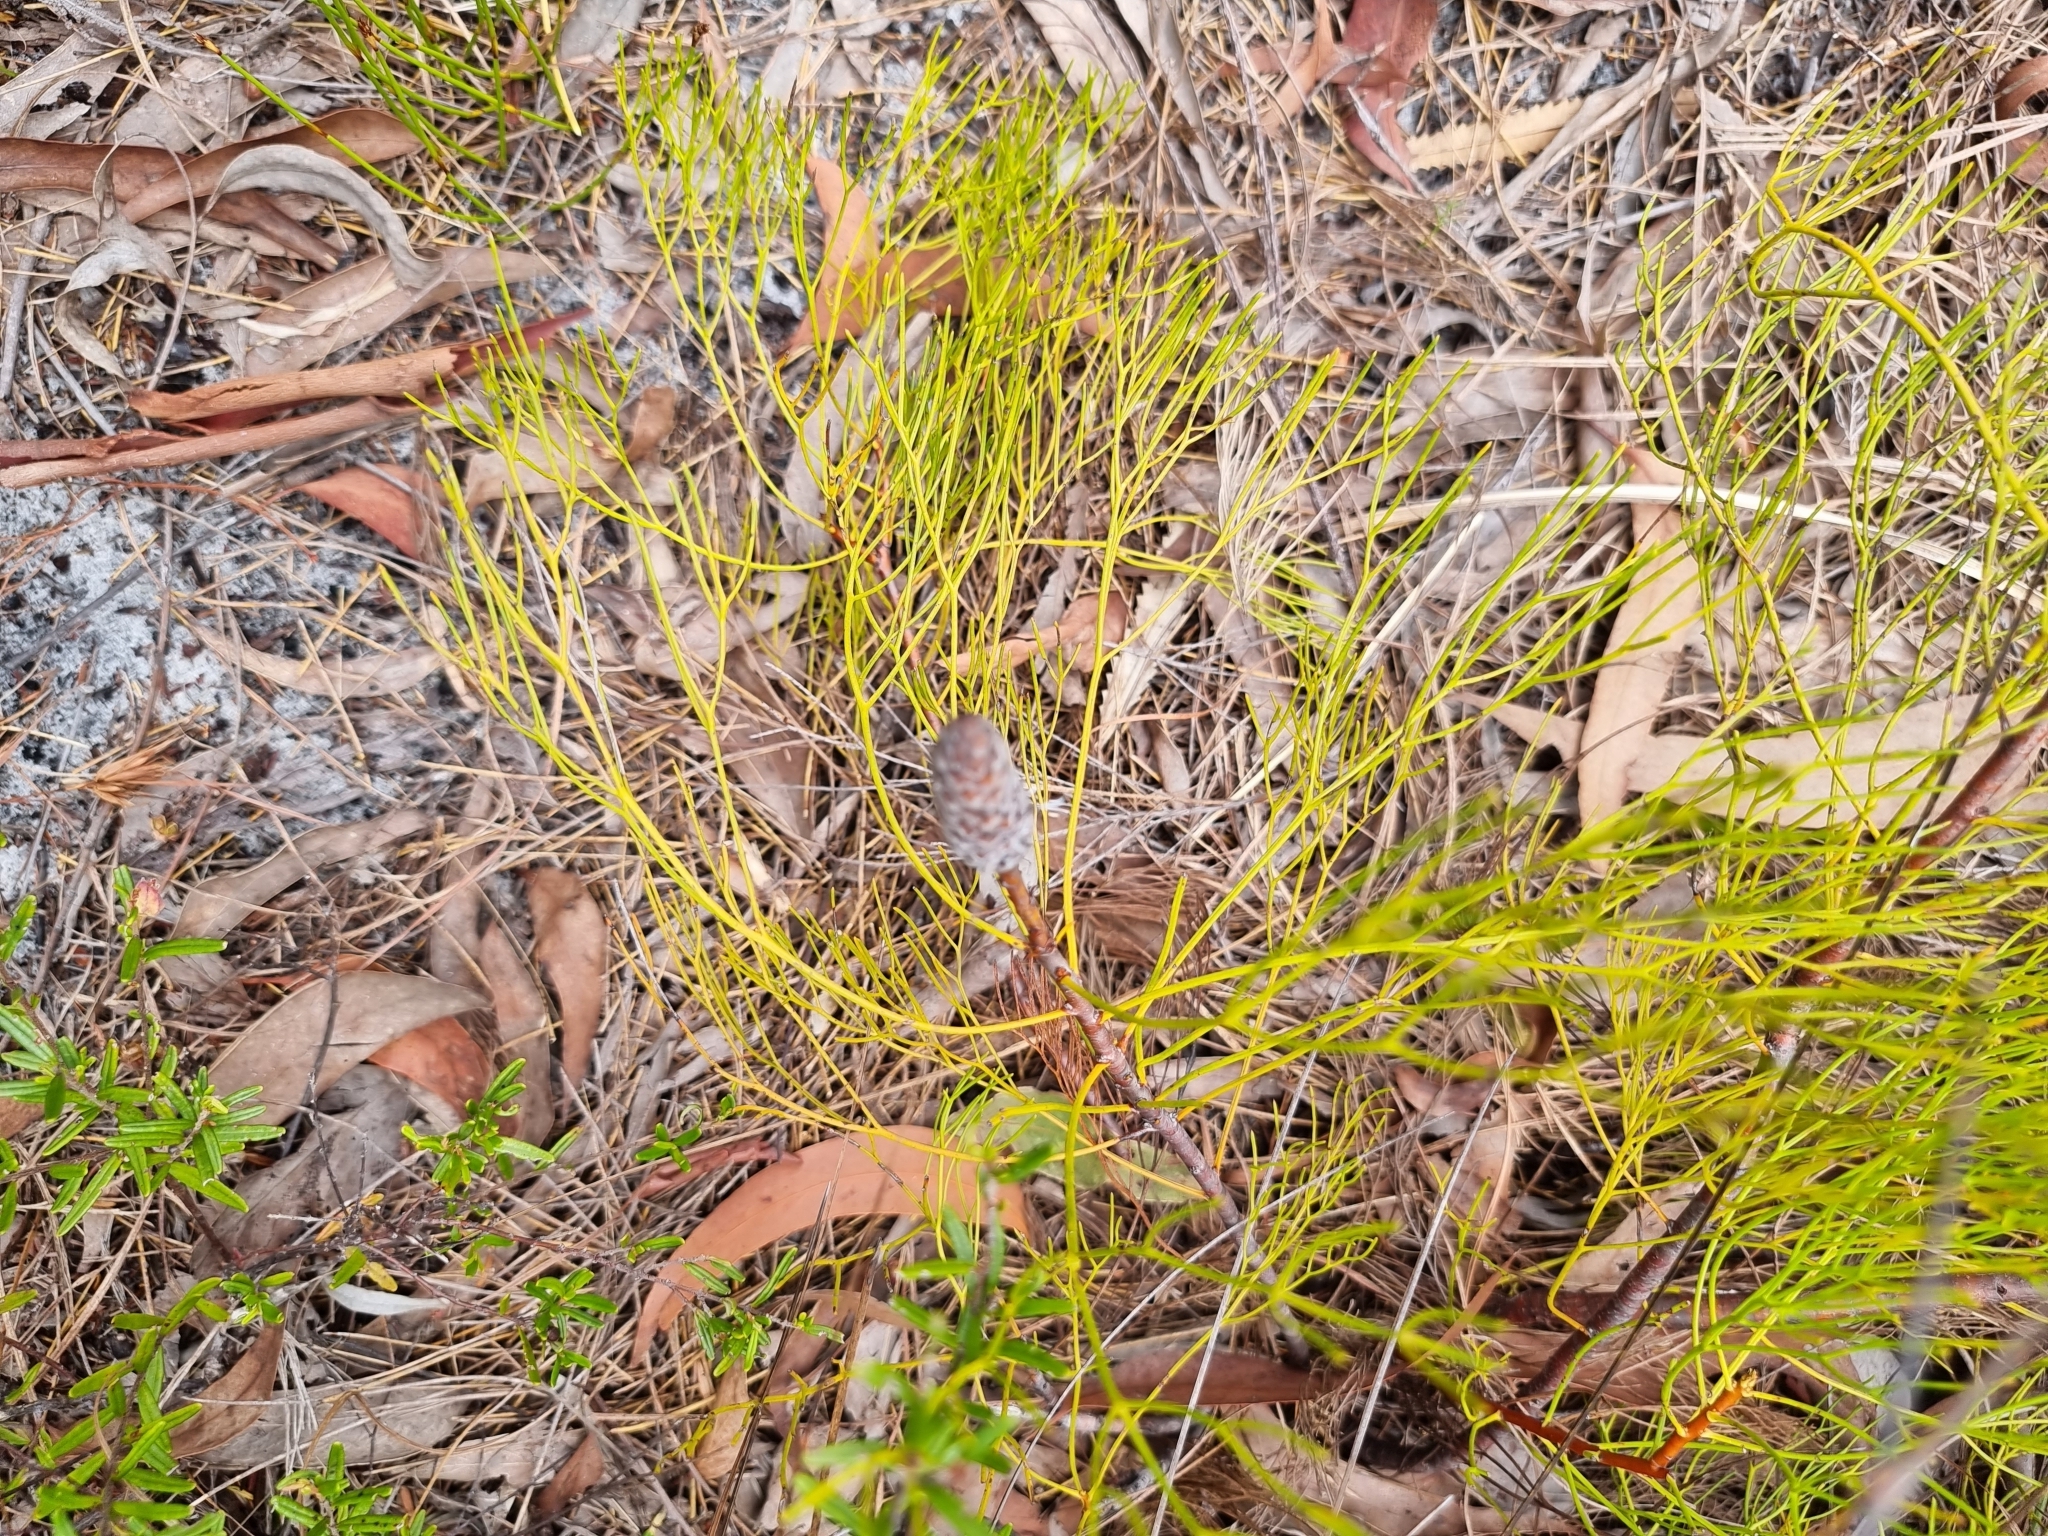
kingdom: Plantae
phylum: Tracheophyta
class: Magnoliopsida
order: Proteales
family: Proteaceae
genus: Petrophile
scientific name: Petrophile shirleyae
